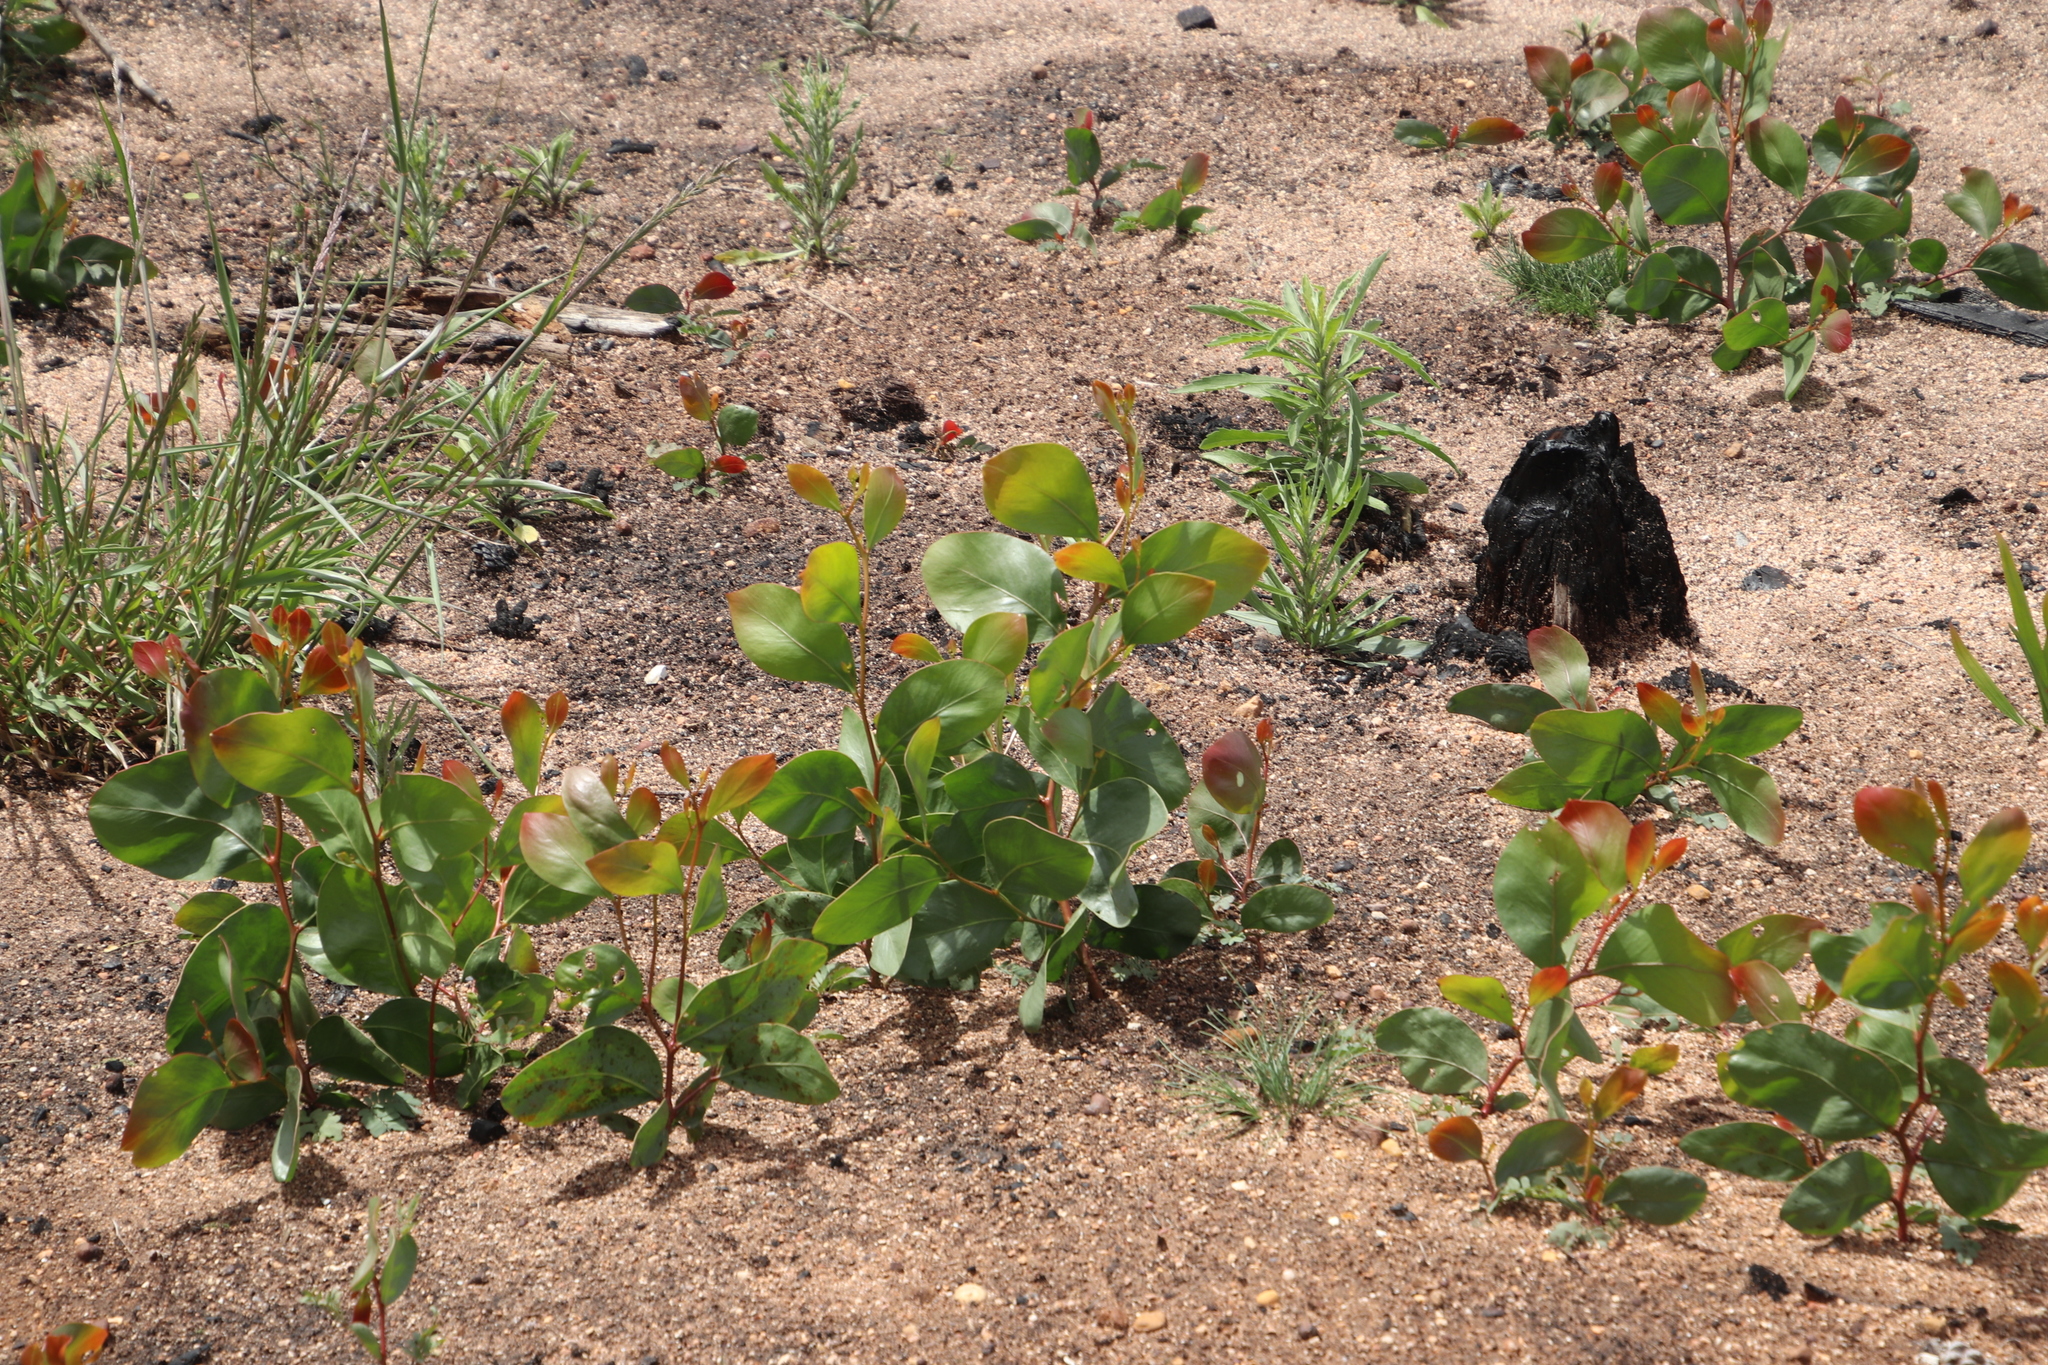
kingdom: Plantae
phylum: Tracheophyta
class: Magnoliopsida
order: Fabales
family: Fabaceae
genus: Acacia
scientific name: Acacia pycnantha
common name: Golden wattle
